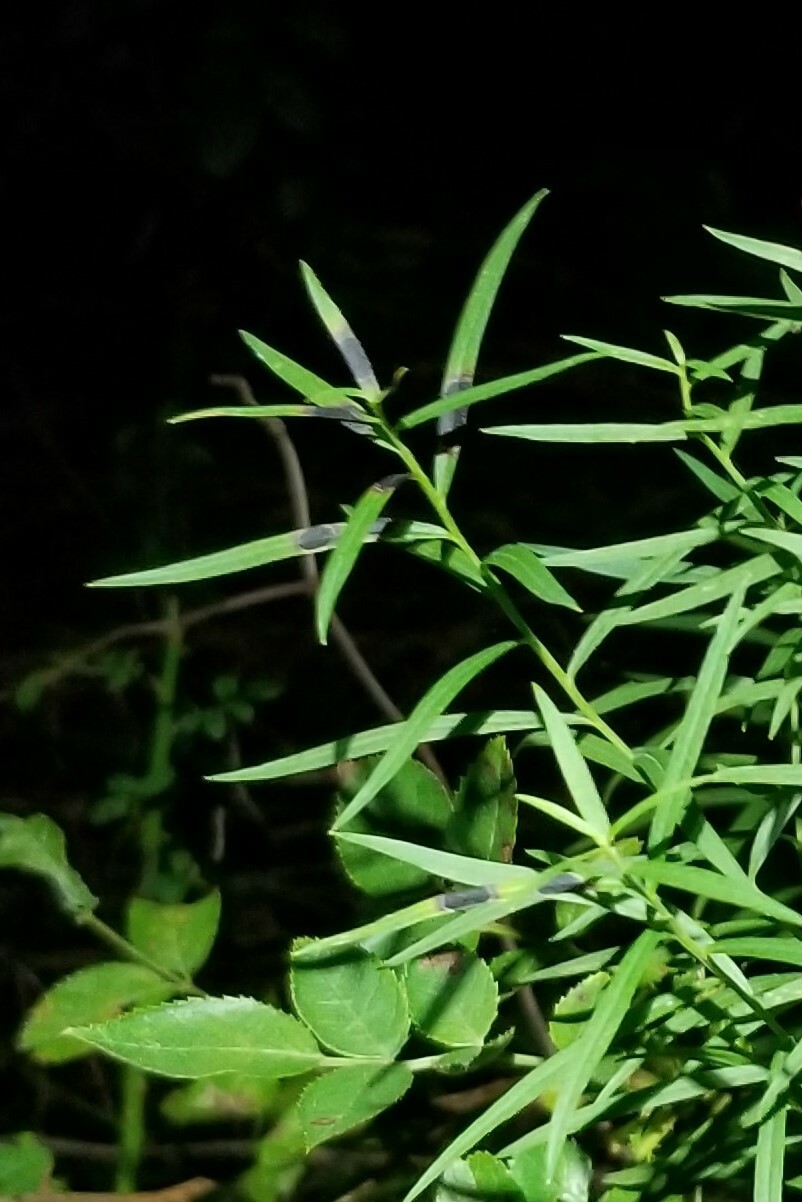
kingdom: Animalia
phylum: Arthropoda
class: Insecta
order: Diptera
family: Cecidomyiidae
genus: Asteromyia
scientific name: Asteromyia euthamiae
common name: Euthamia leaf gall midge
